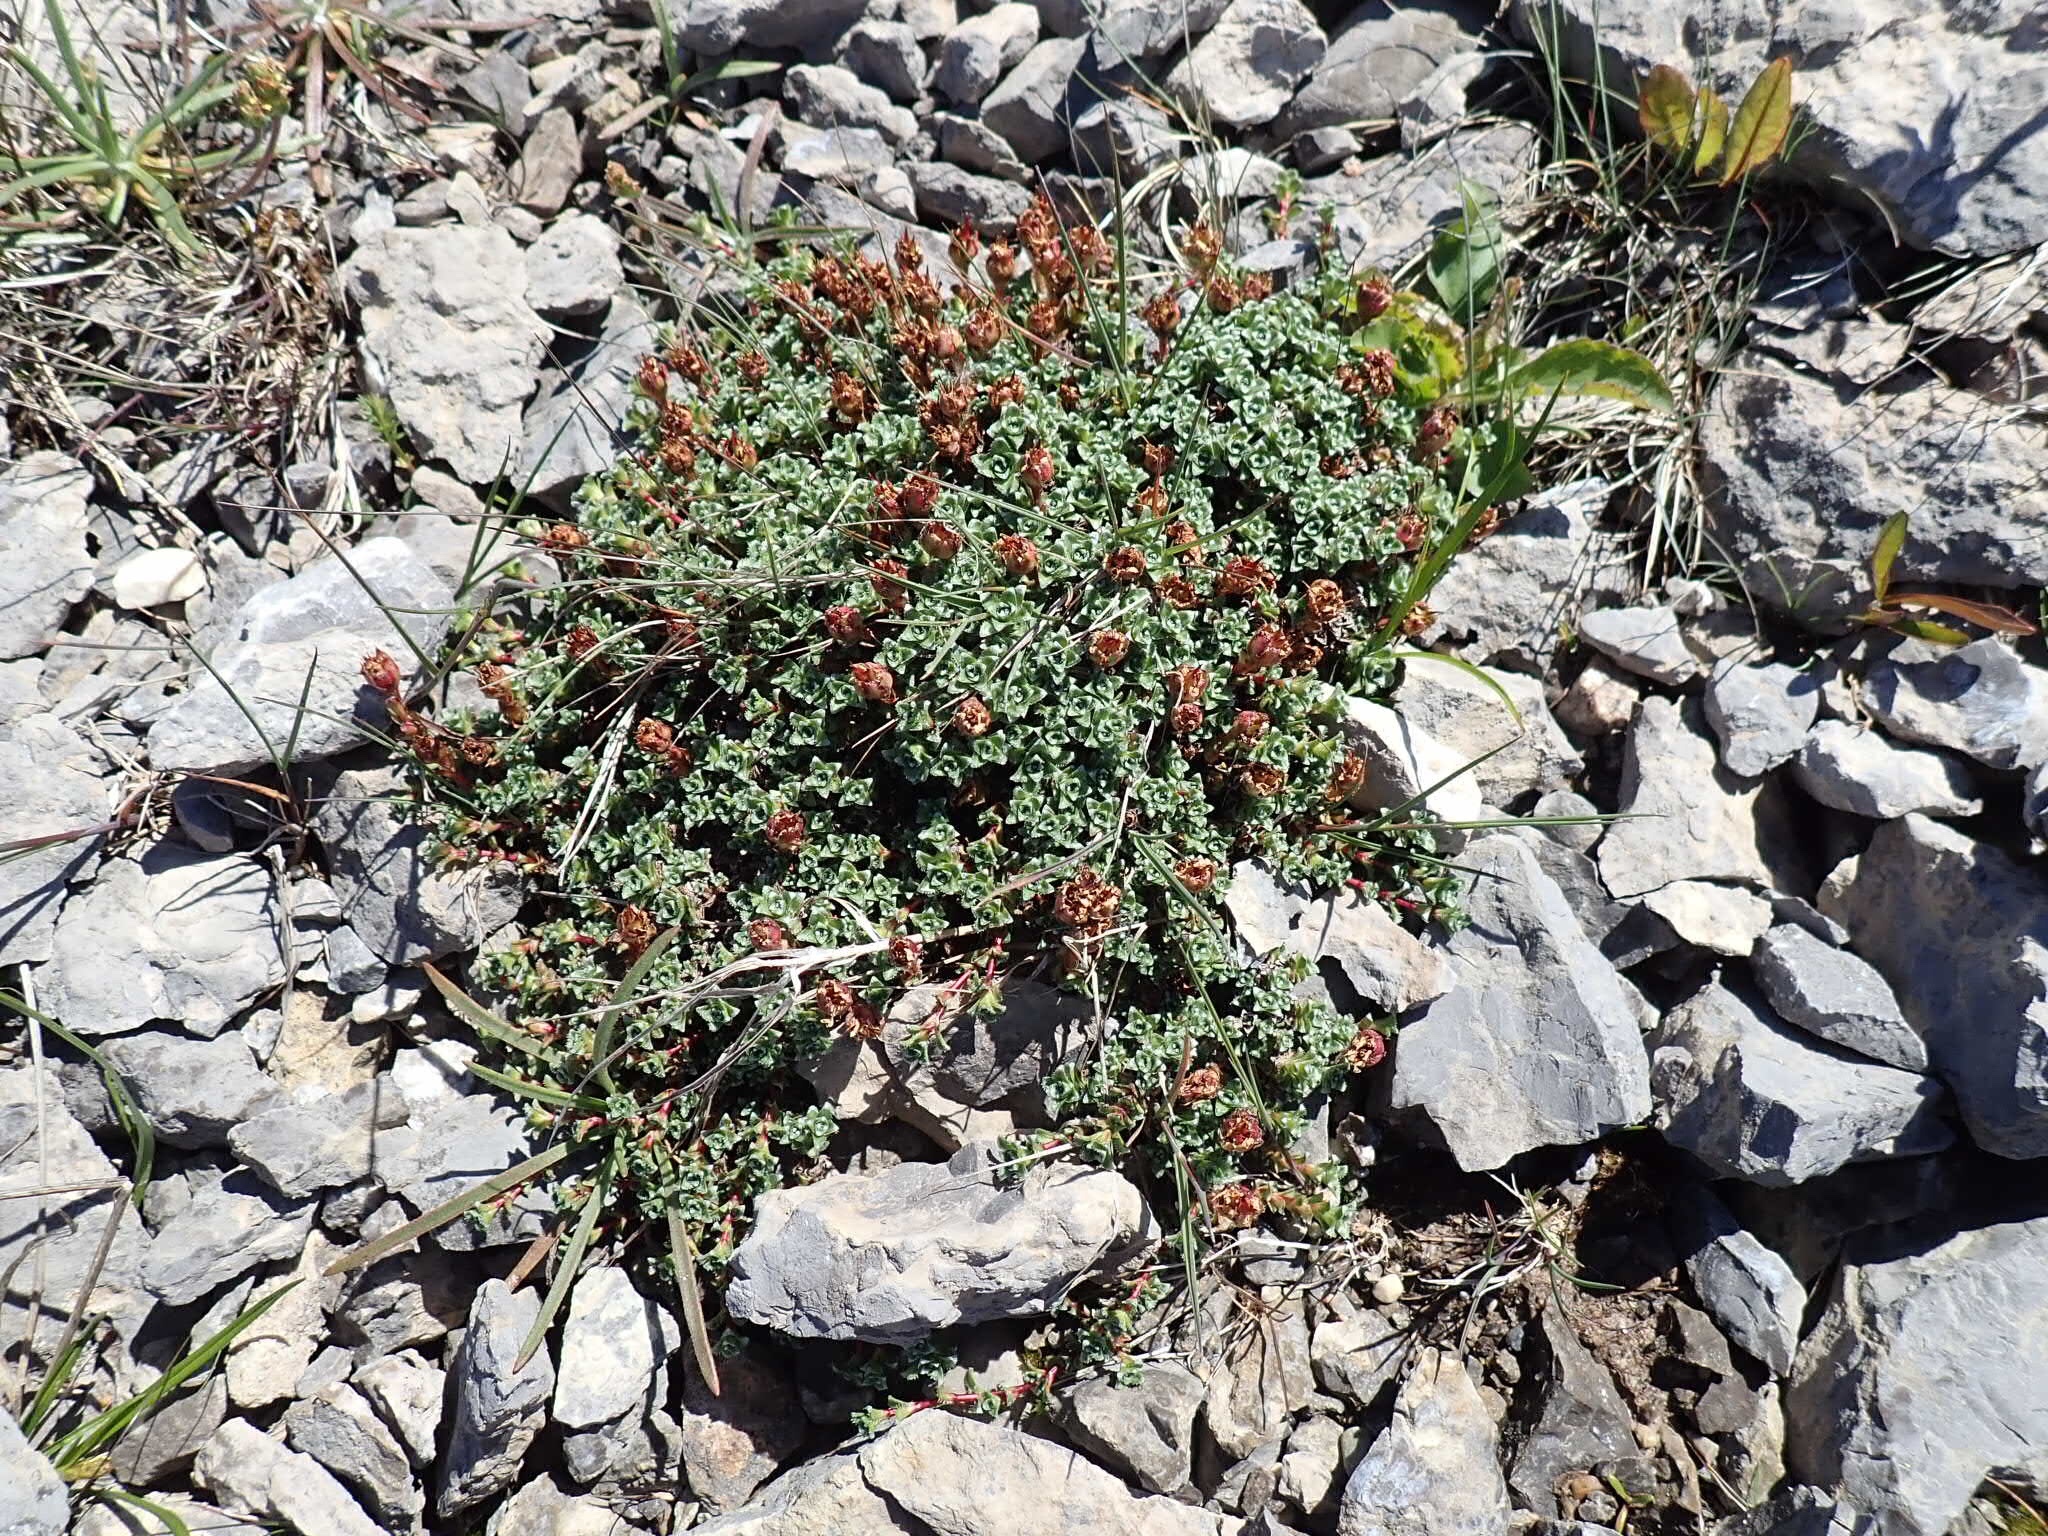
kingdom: Plantae
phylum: Tracheophyta
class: Magnoliopsida
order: Saxifragales
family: Saxifragaceae
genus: Saxifraga
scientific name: Saxifraga oppositifolia
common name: Purple saxifrage
